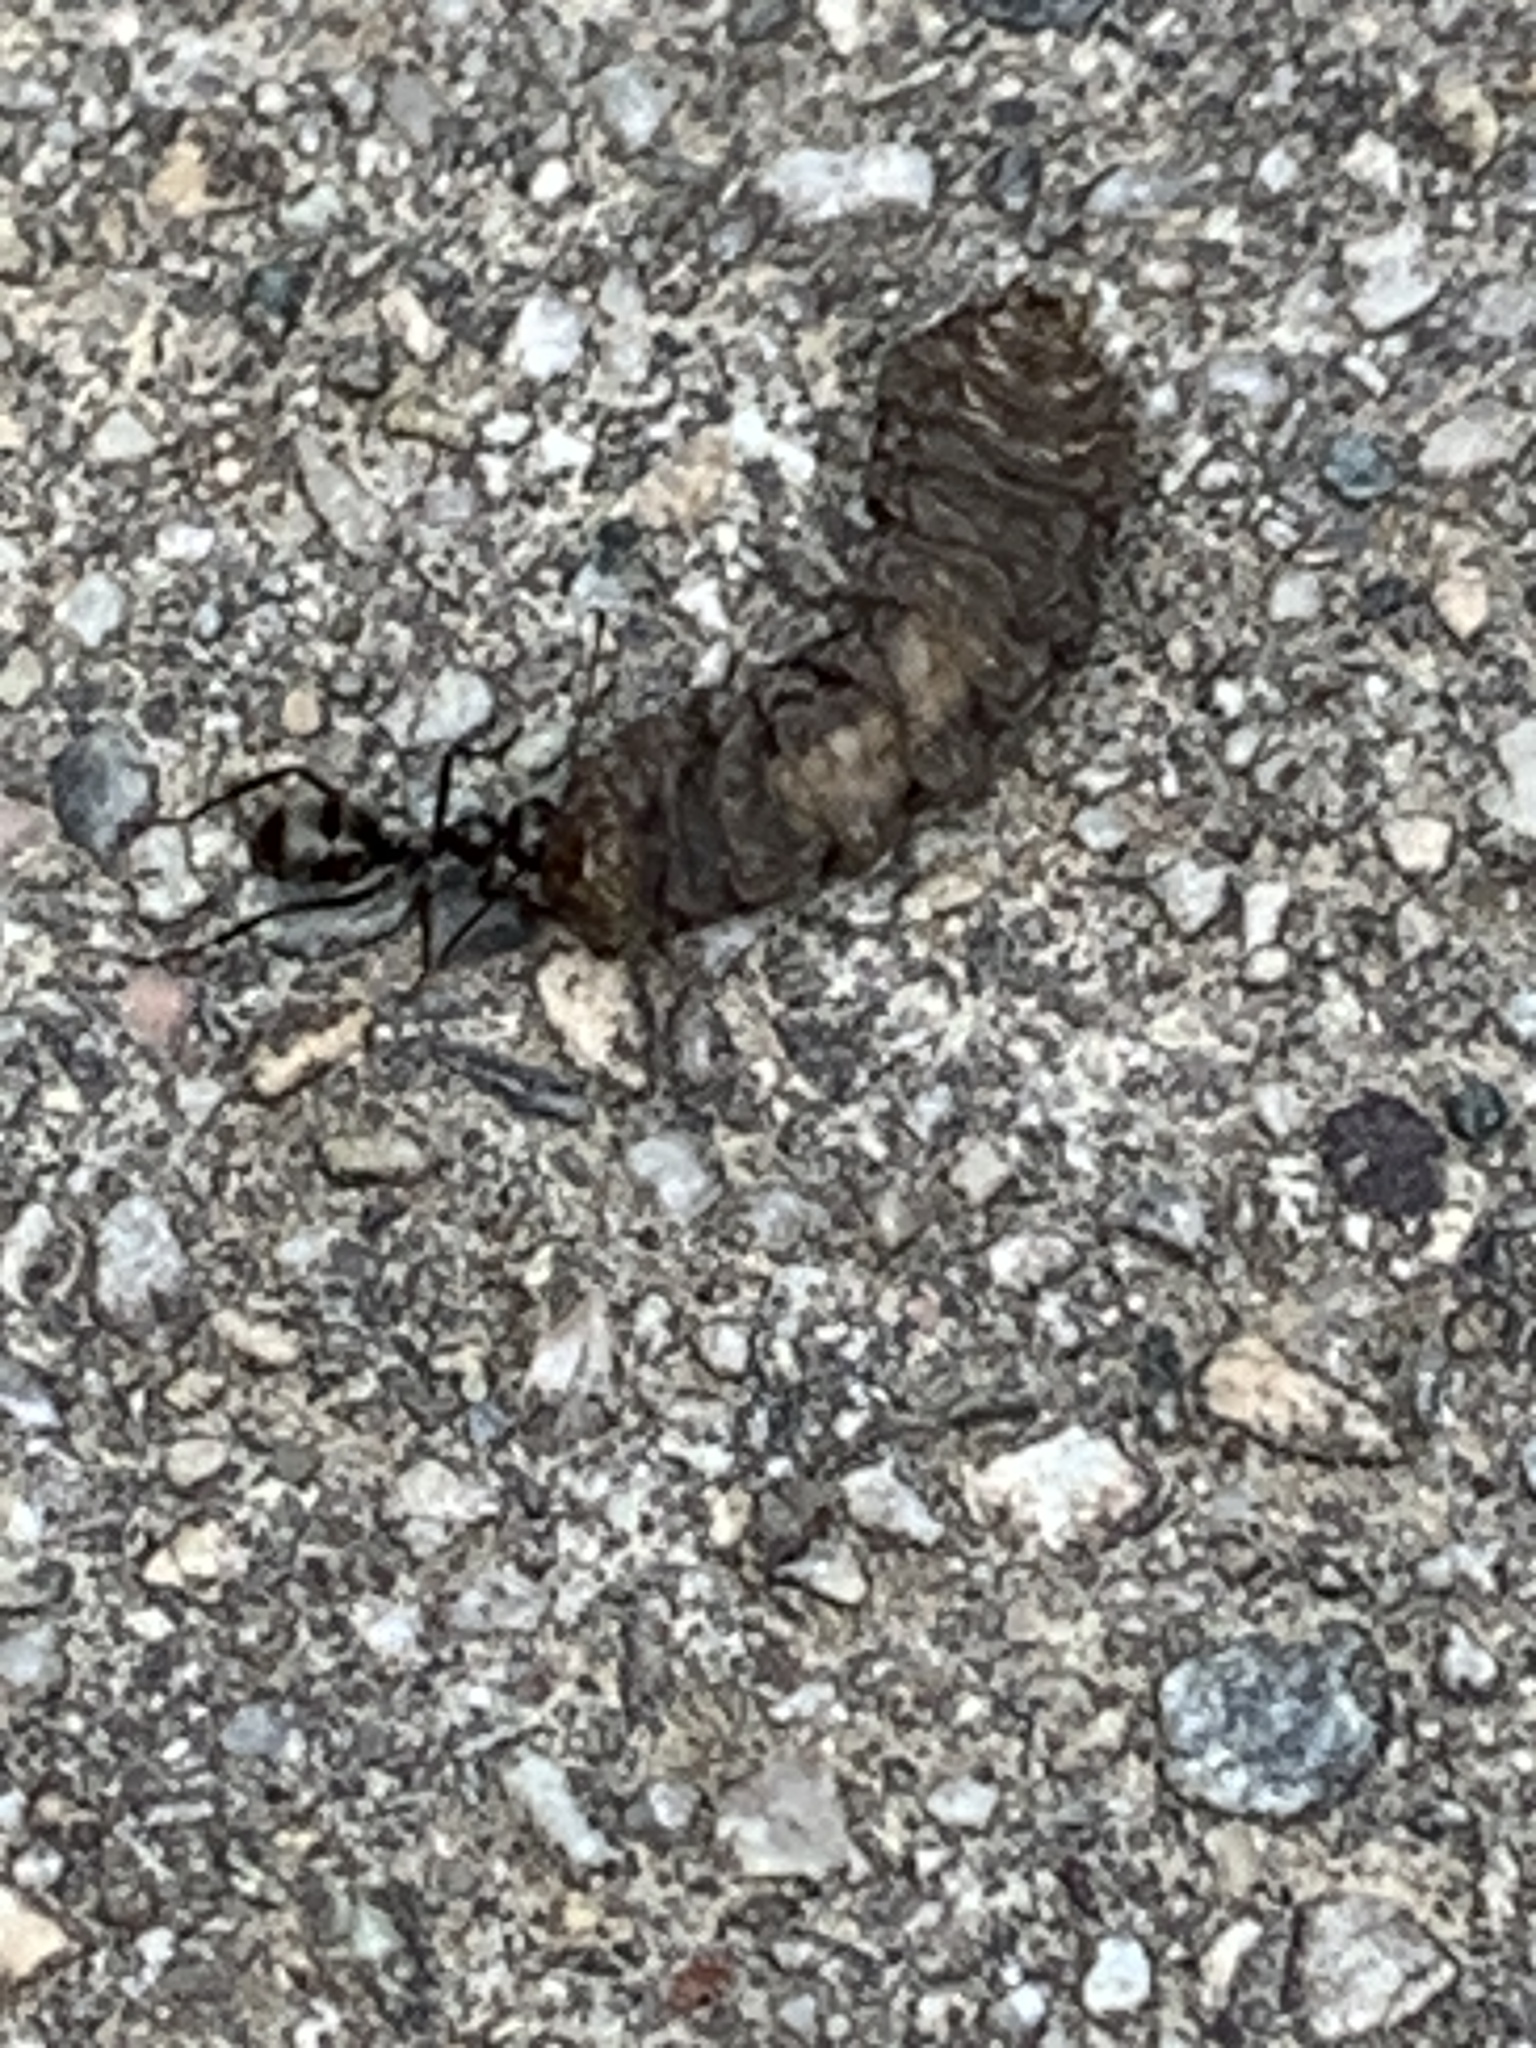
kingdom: Animalia
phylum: Arthropoda
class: Insecta
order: Hymenoptera
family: Formicidae
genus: Formica
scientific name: Formica
